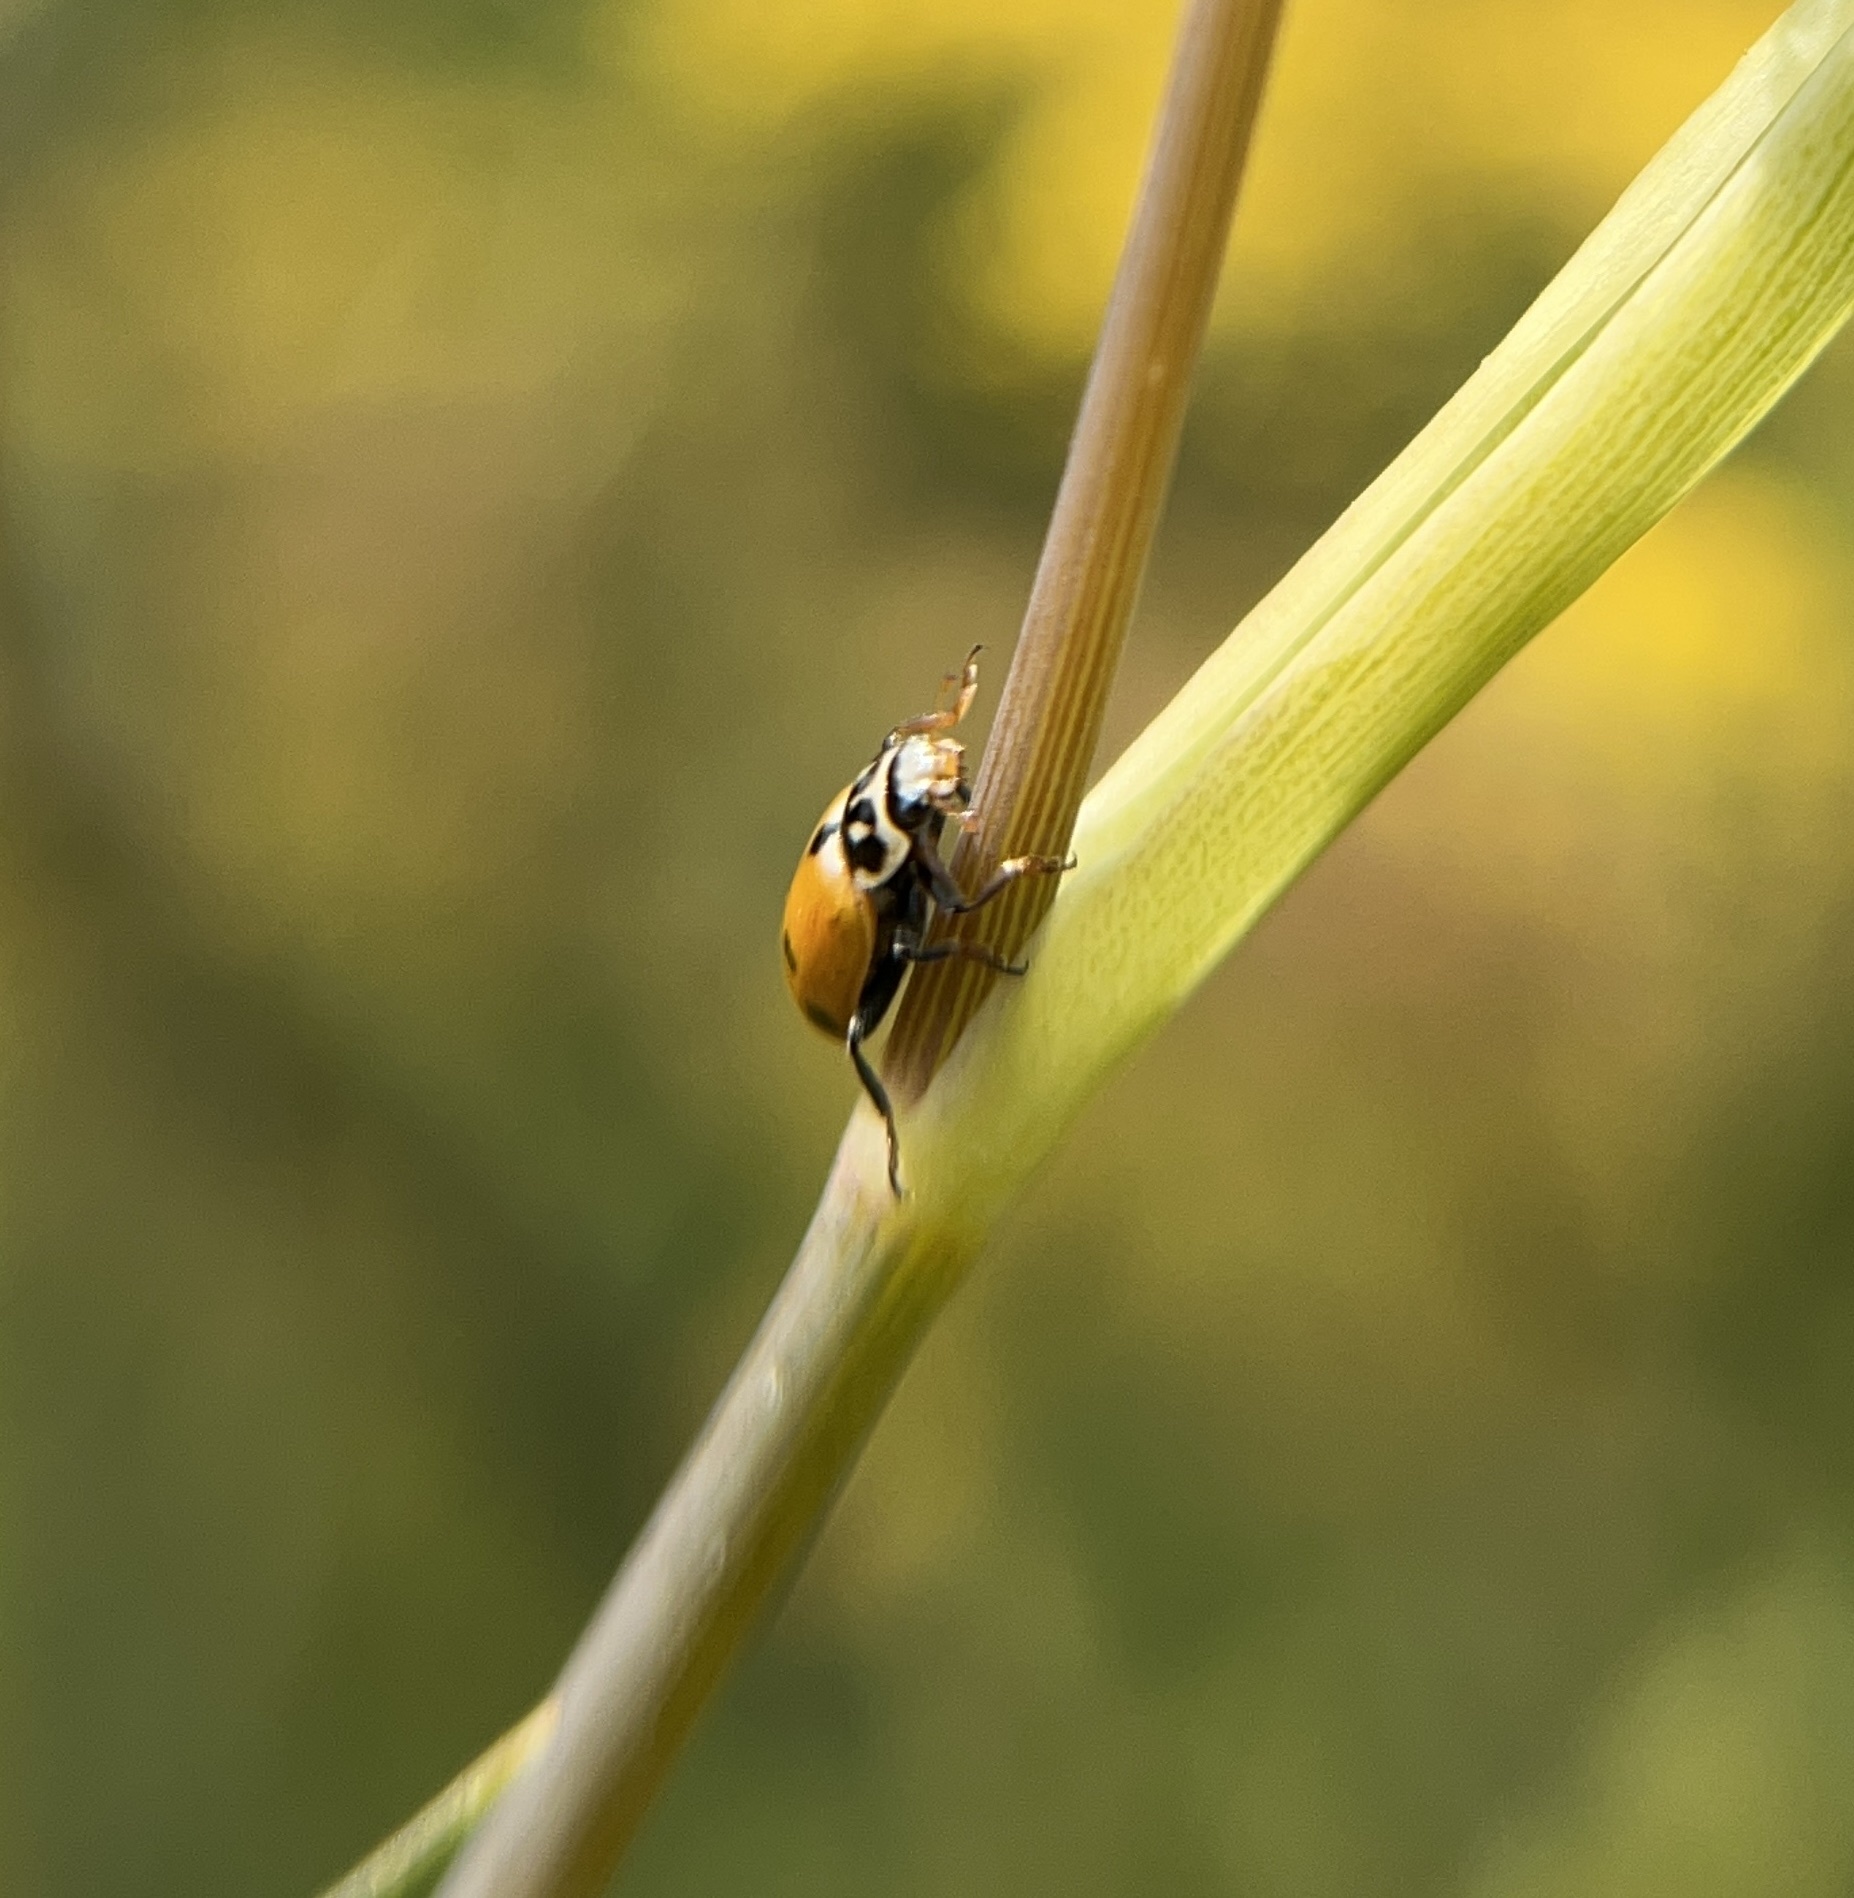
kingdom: Animalia
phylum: Arthropoda
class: Insecta
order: Coleoptera
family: Coccinellidae
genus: Hippodamia
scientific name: Hippodamia variegata
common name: Ladybird beetle
